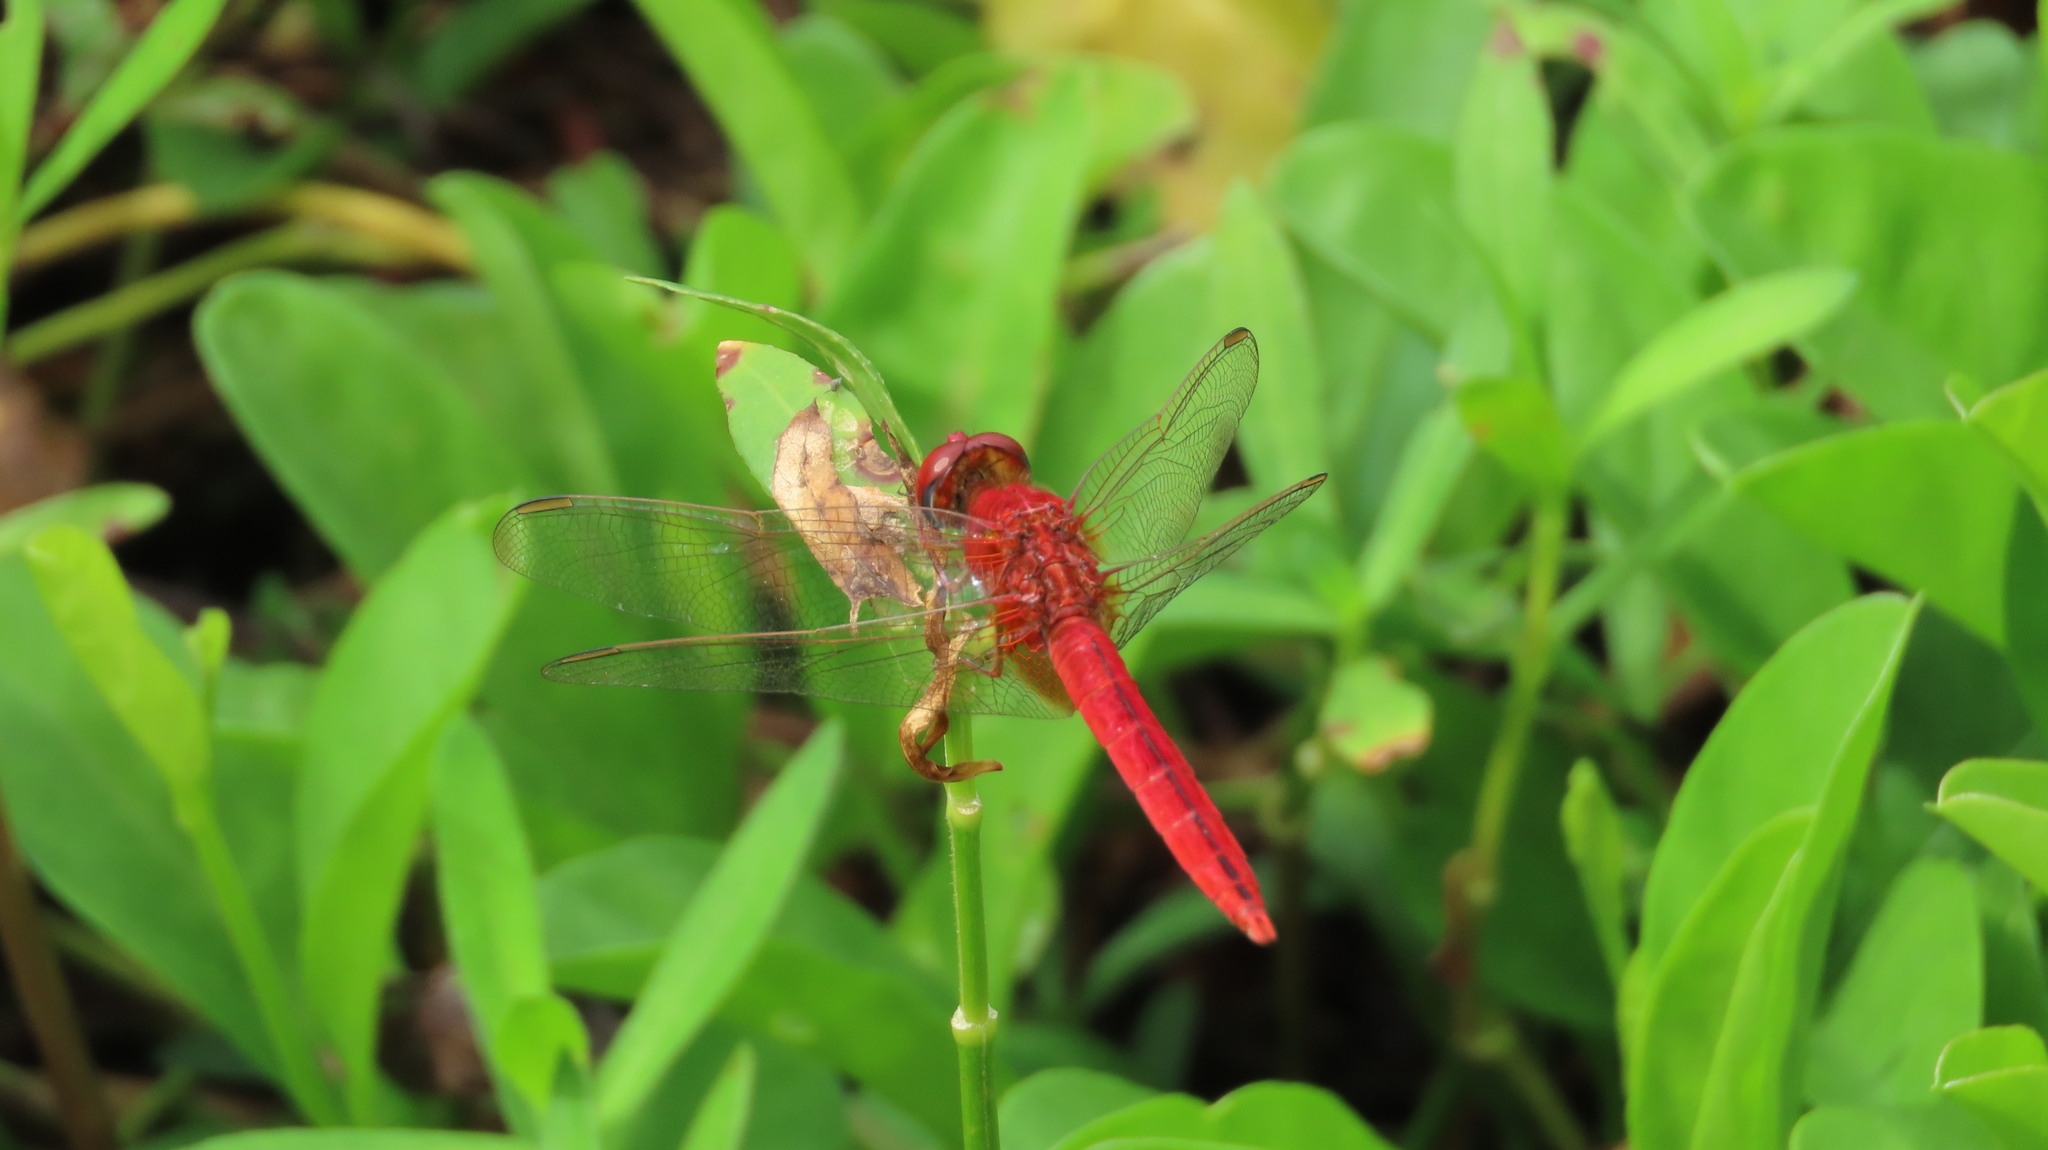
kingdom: Animalia
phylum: Arthropoda
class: Insecta
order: Odonata
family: Libellulidae
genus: Crocothemis
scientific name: Crocothemis servilia
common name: Scarlet skimmer
